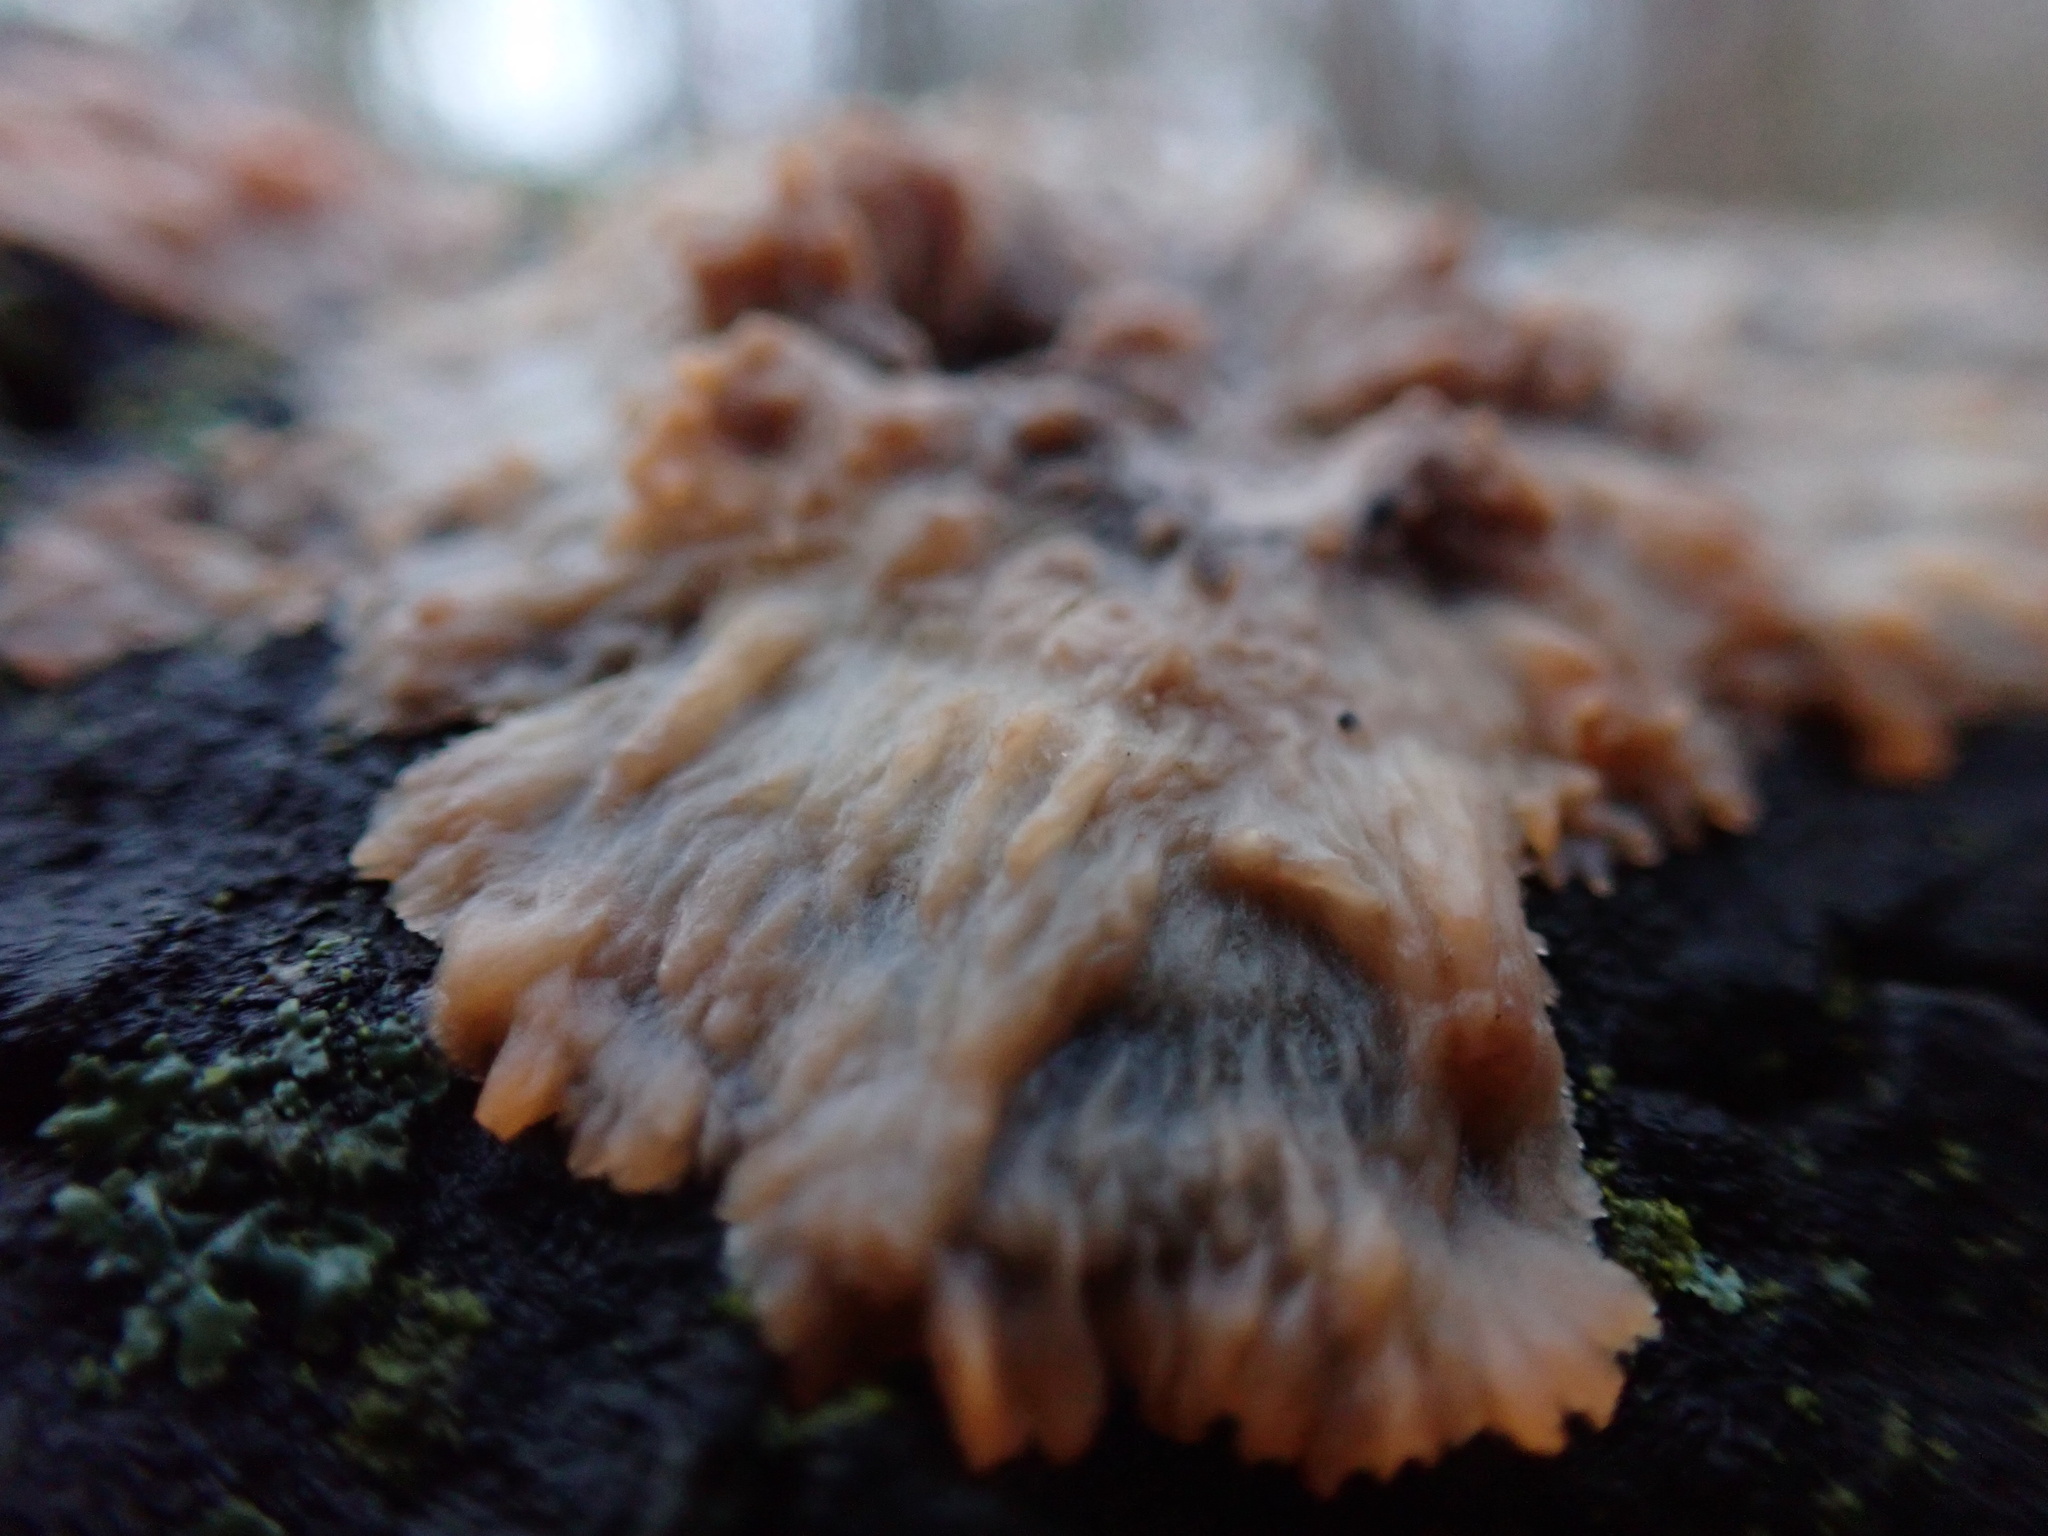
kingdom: Fungi
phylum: Basidiomycota
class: Agaricomycetes
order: Polyporales
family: Meruliaceae
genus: Phlebia
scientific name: Phlebia radiata
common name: Wrinkled crust
